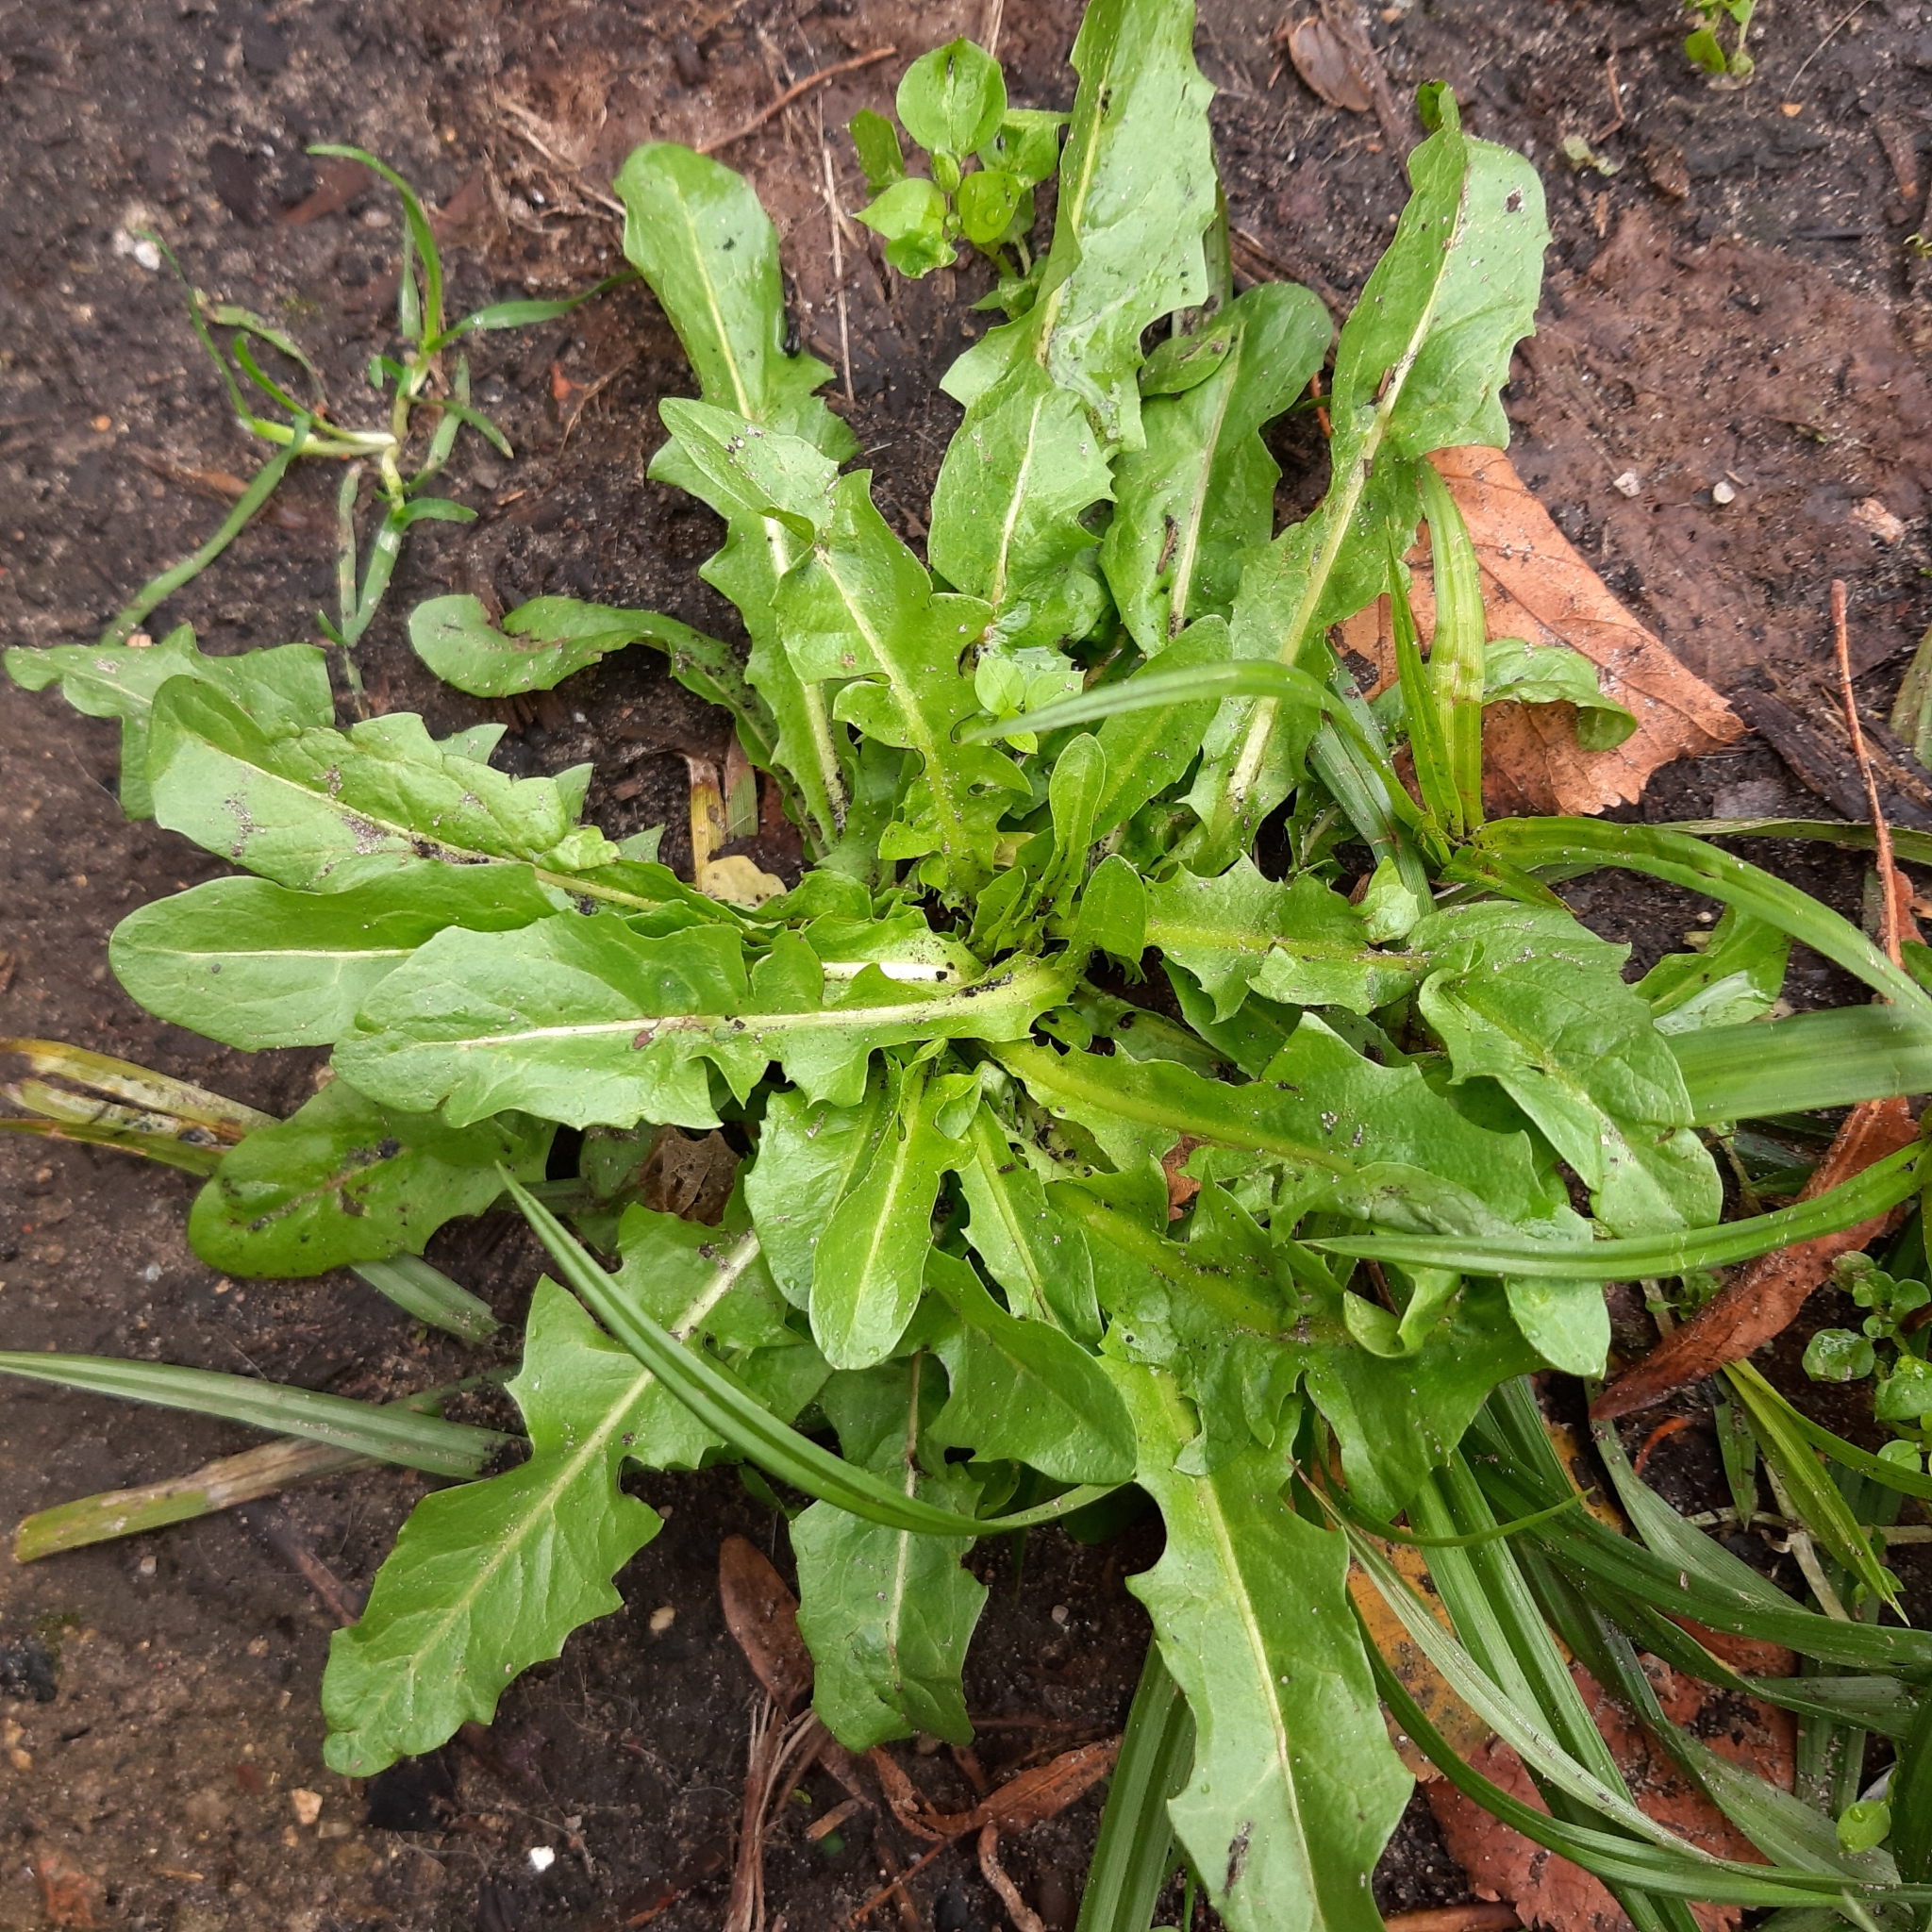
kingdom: Plantae
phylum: Tracheophyta
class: Magnoliopsida
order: Asterales
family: Asteraceae
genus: Taraxacum
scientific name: Taraxacum officinale
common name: Common dandelion
